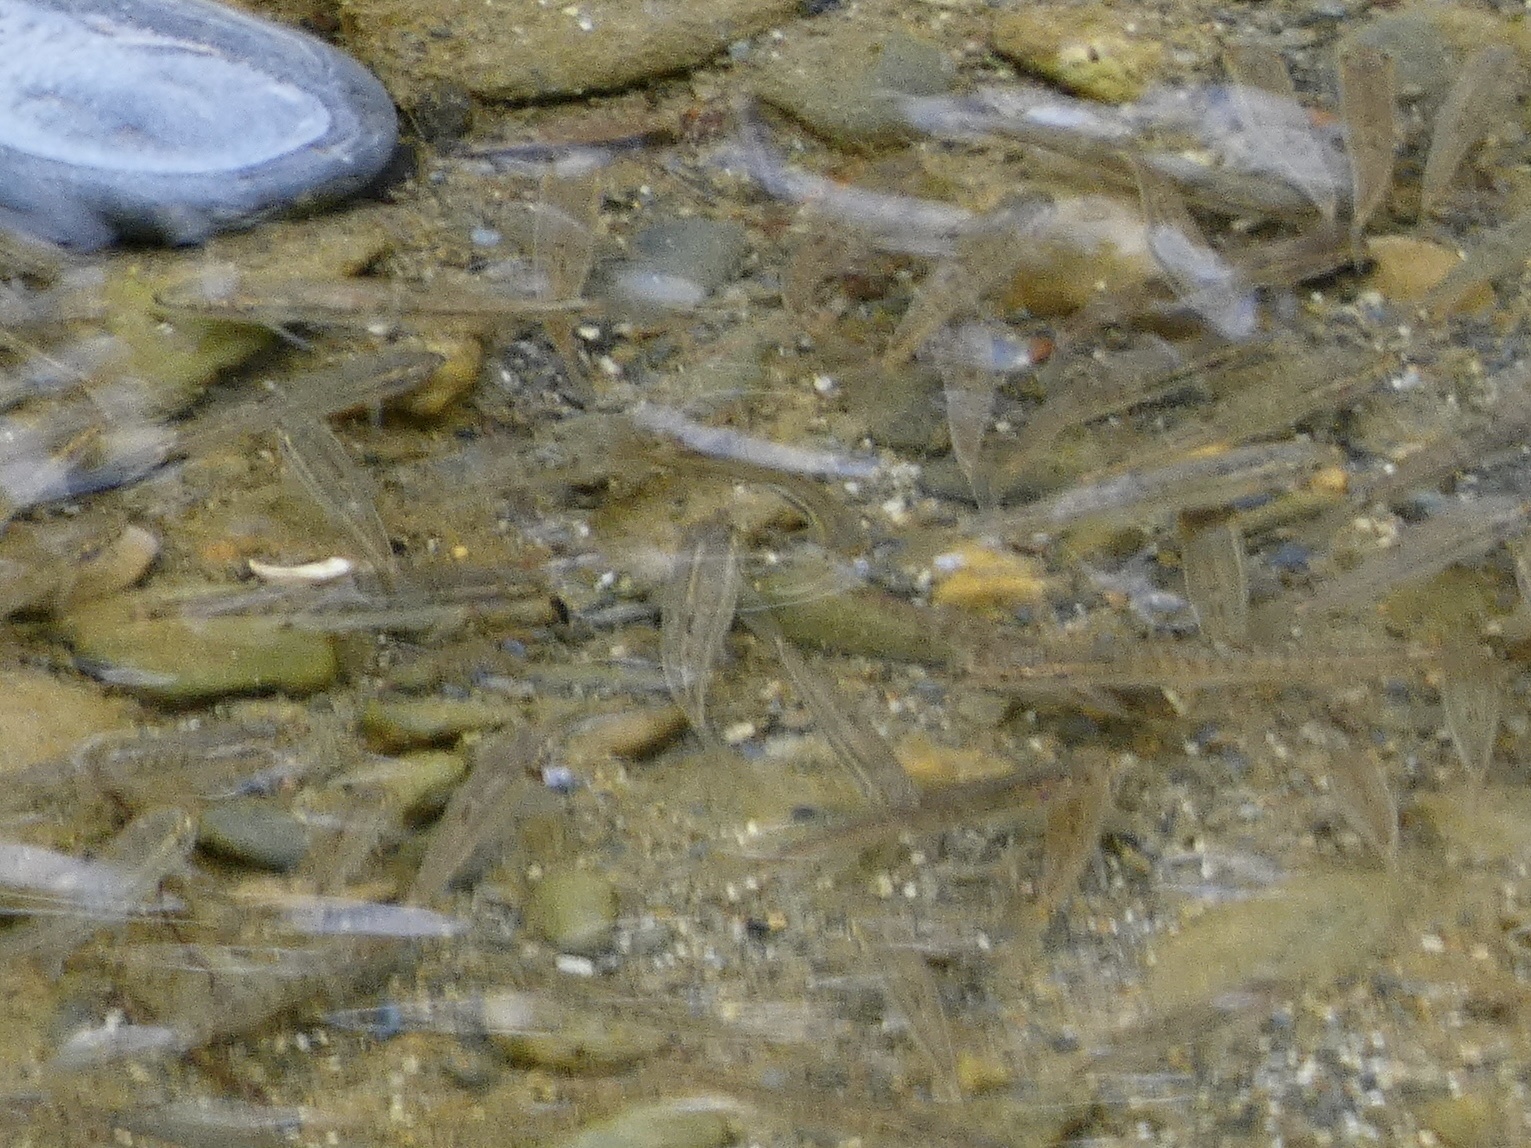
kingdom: Animalia
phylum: Chordata
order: Cypriniformes
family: Cyprinidae
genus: Phoxinus
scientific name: Phoxinus bigerri
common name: Adour minnow
